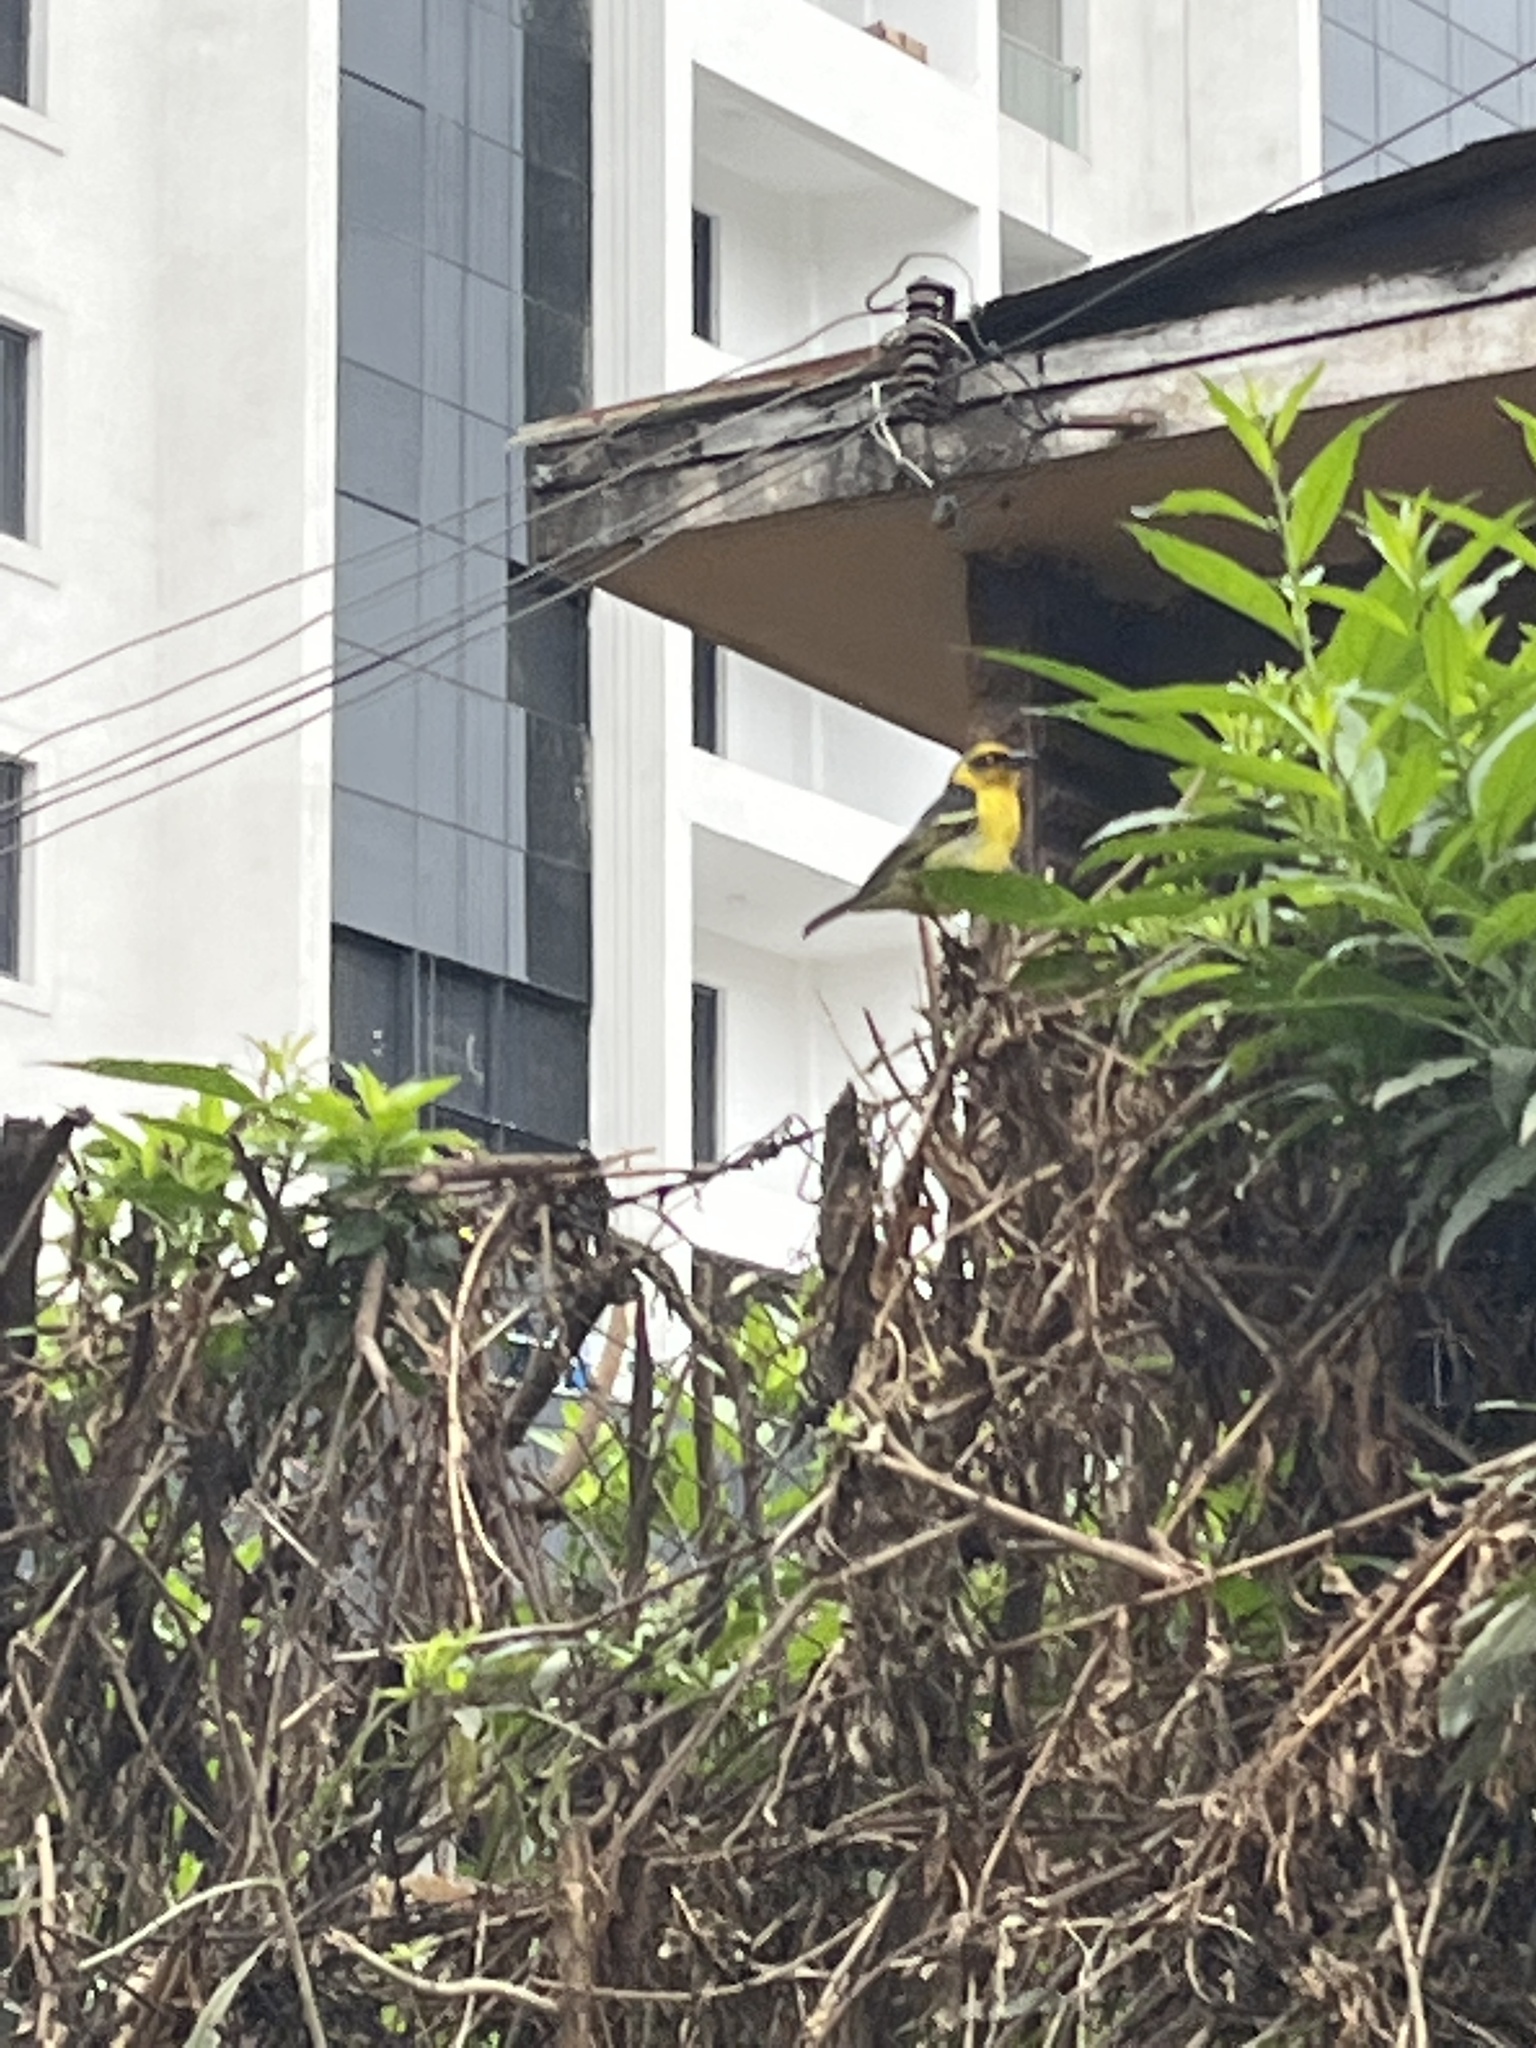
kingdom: Animalia
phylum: Chordata
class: Aves
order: Passeriformes
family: Ploceidae
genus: Ploceus
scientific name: Ploceus baglafecht
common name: Baglafecht weaver
